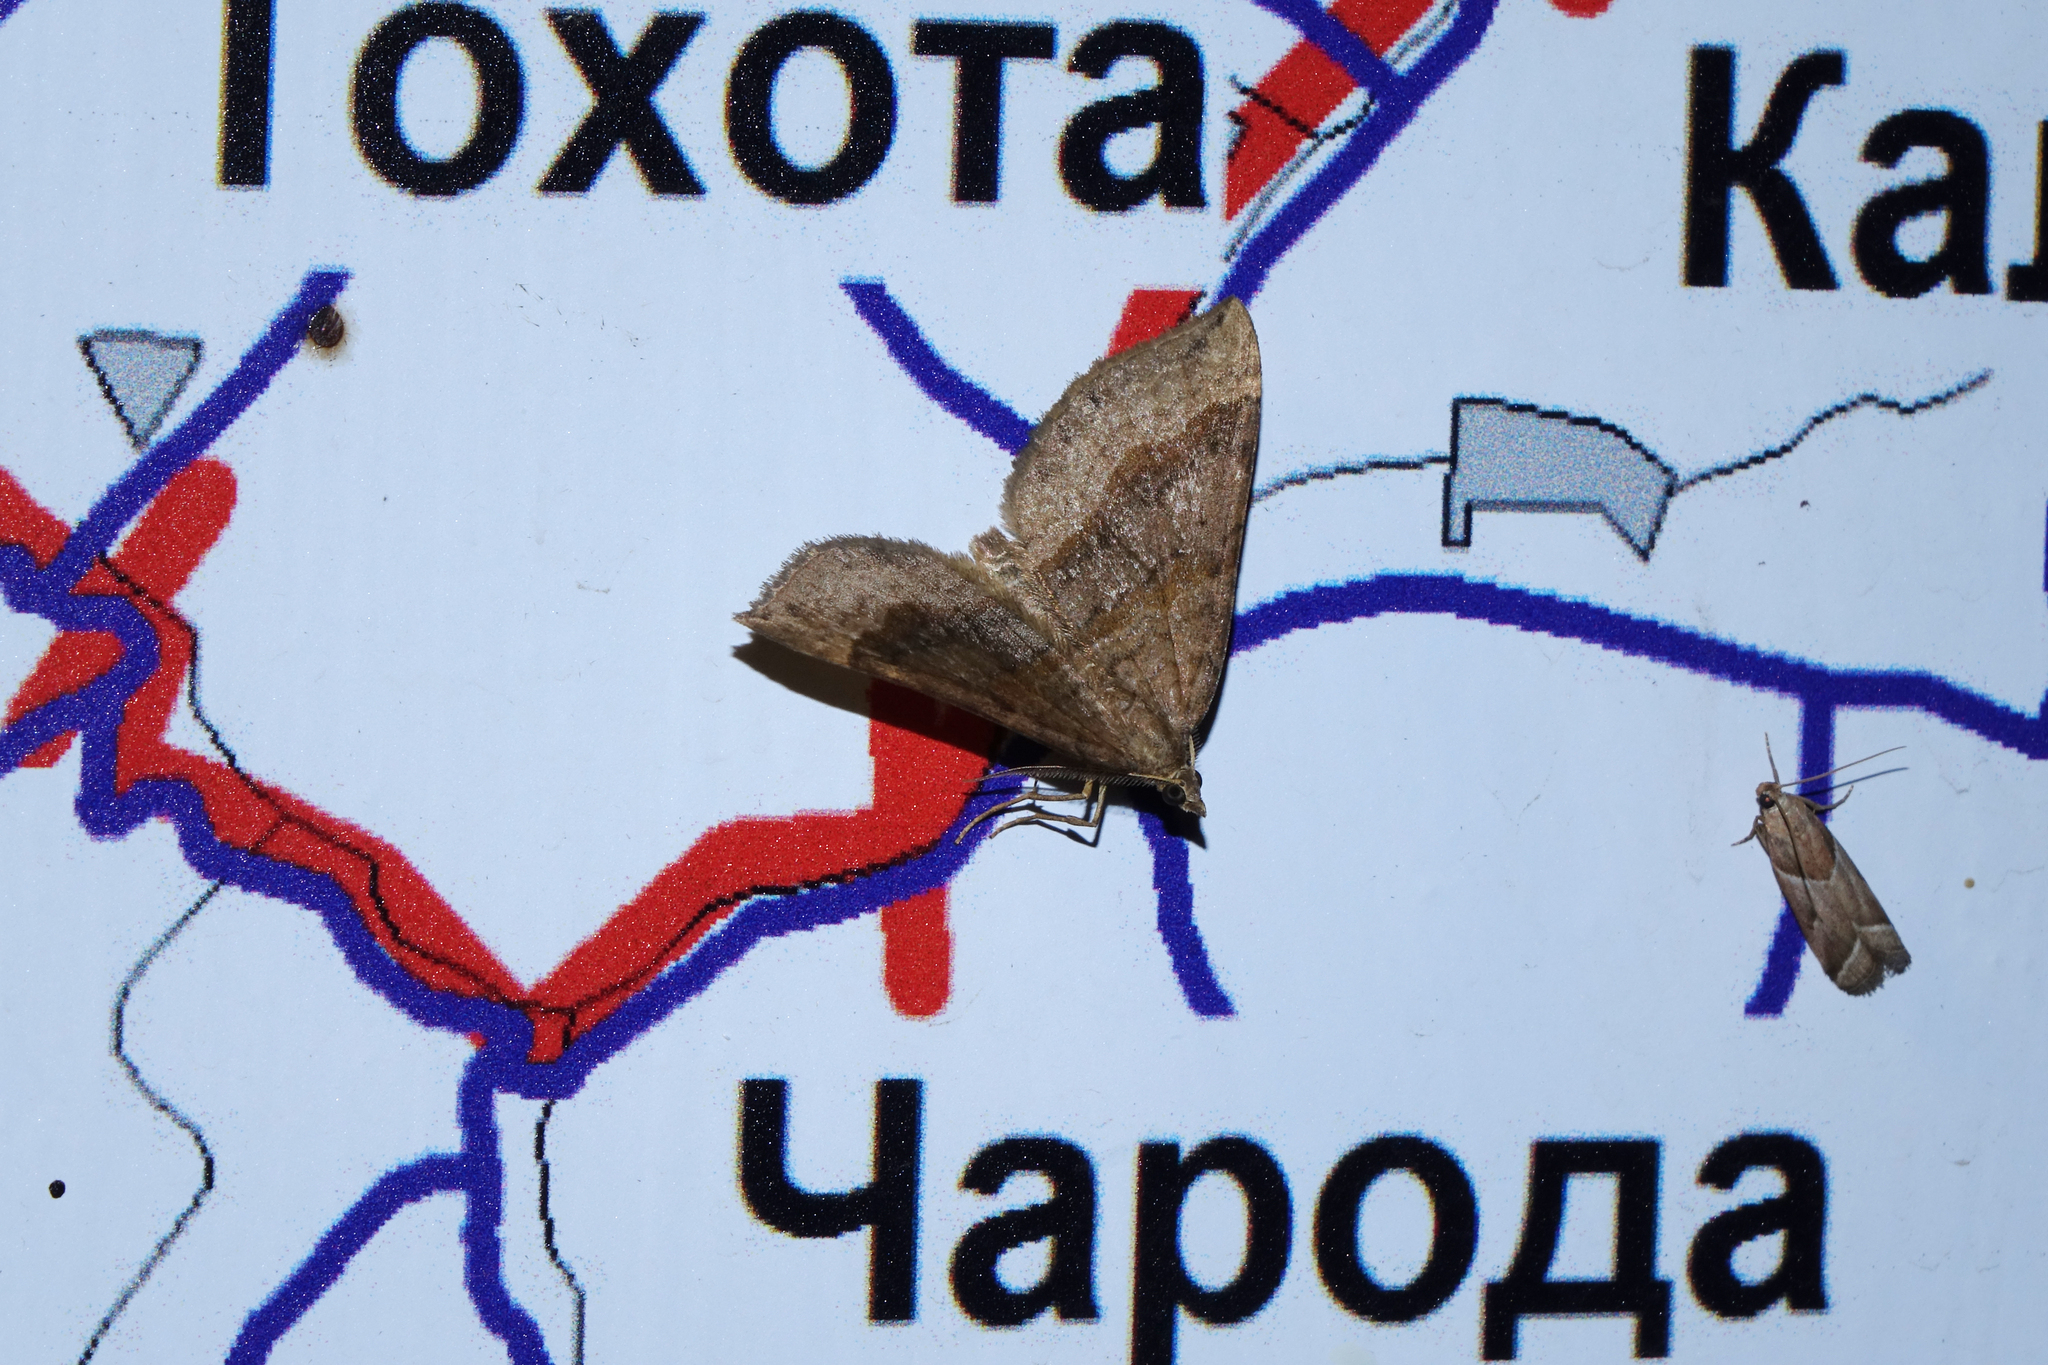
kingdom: Animalia
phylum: Arthropoda
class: Insecta
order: Lepidoptera
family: Geometridae
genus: Scotopteryx
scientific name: Scotopteryx chenopodiata
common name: Shaded broad-bar
